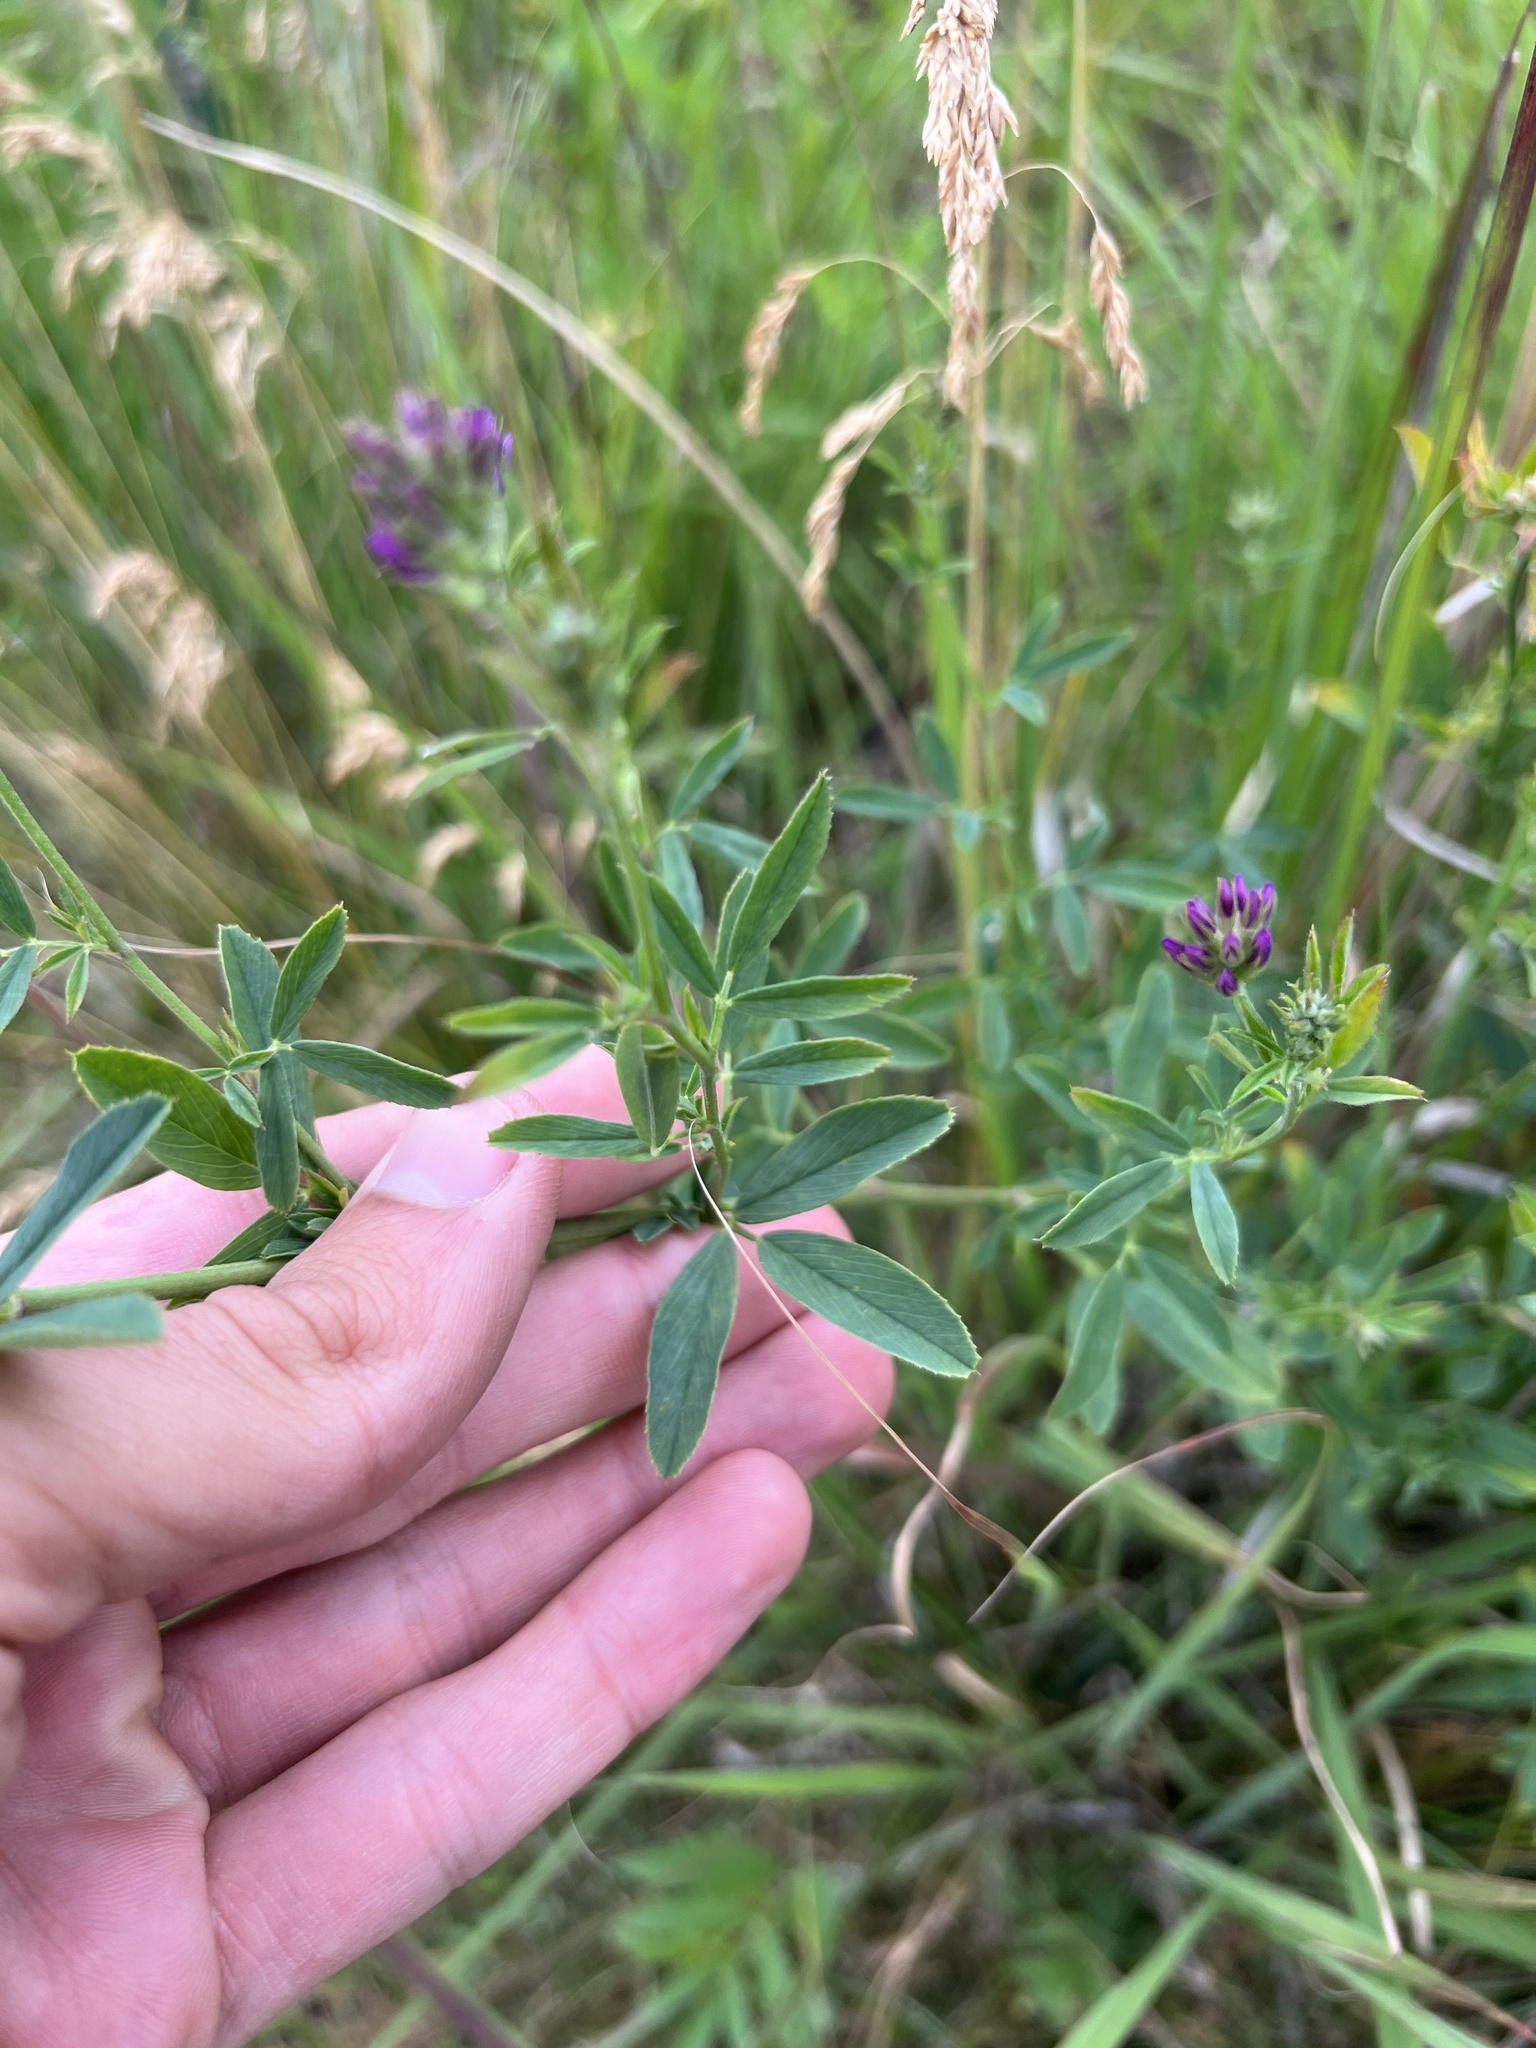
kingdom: Plantae
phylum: Tracheophyta
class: Magnoliopsida
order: Fabales
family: Fabaceae
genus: Medicago
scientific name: Medicago sativa
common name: Alfalfa
